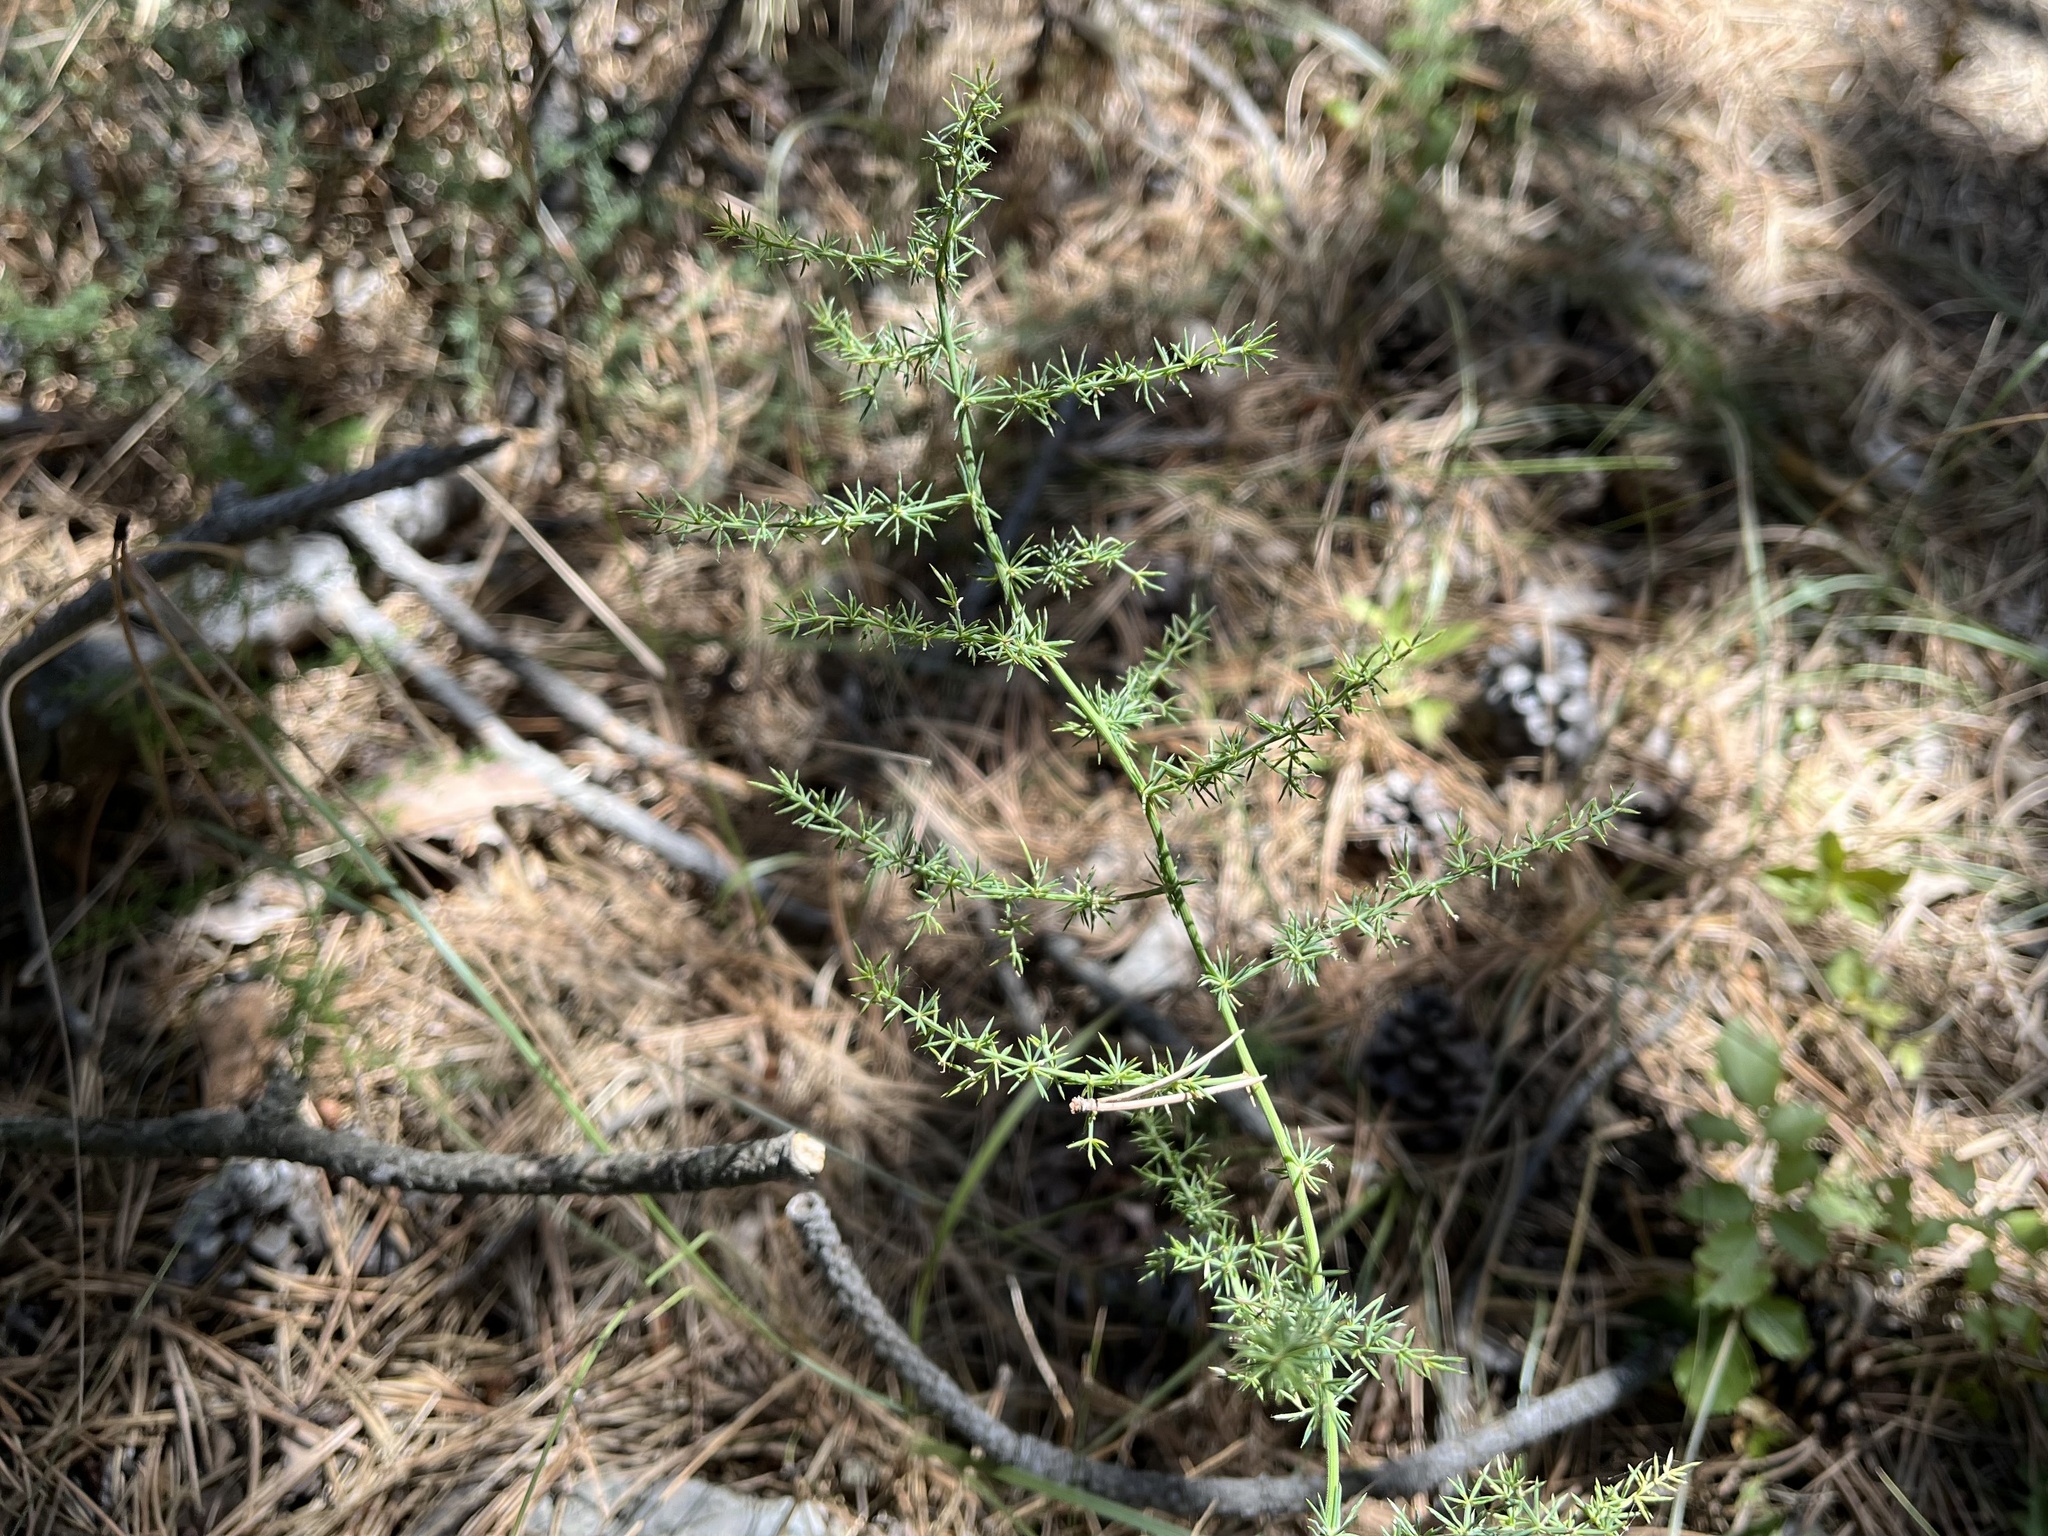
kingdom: Plantae
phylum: Tracheophyta
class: Liliopsida
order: Asparagales
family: Asparagaceae
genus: Asparagus
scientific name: Asparagus acutifolius
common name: Wild asparagus
